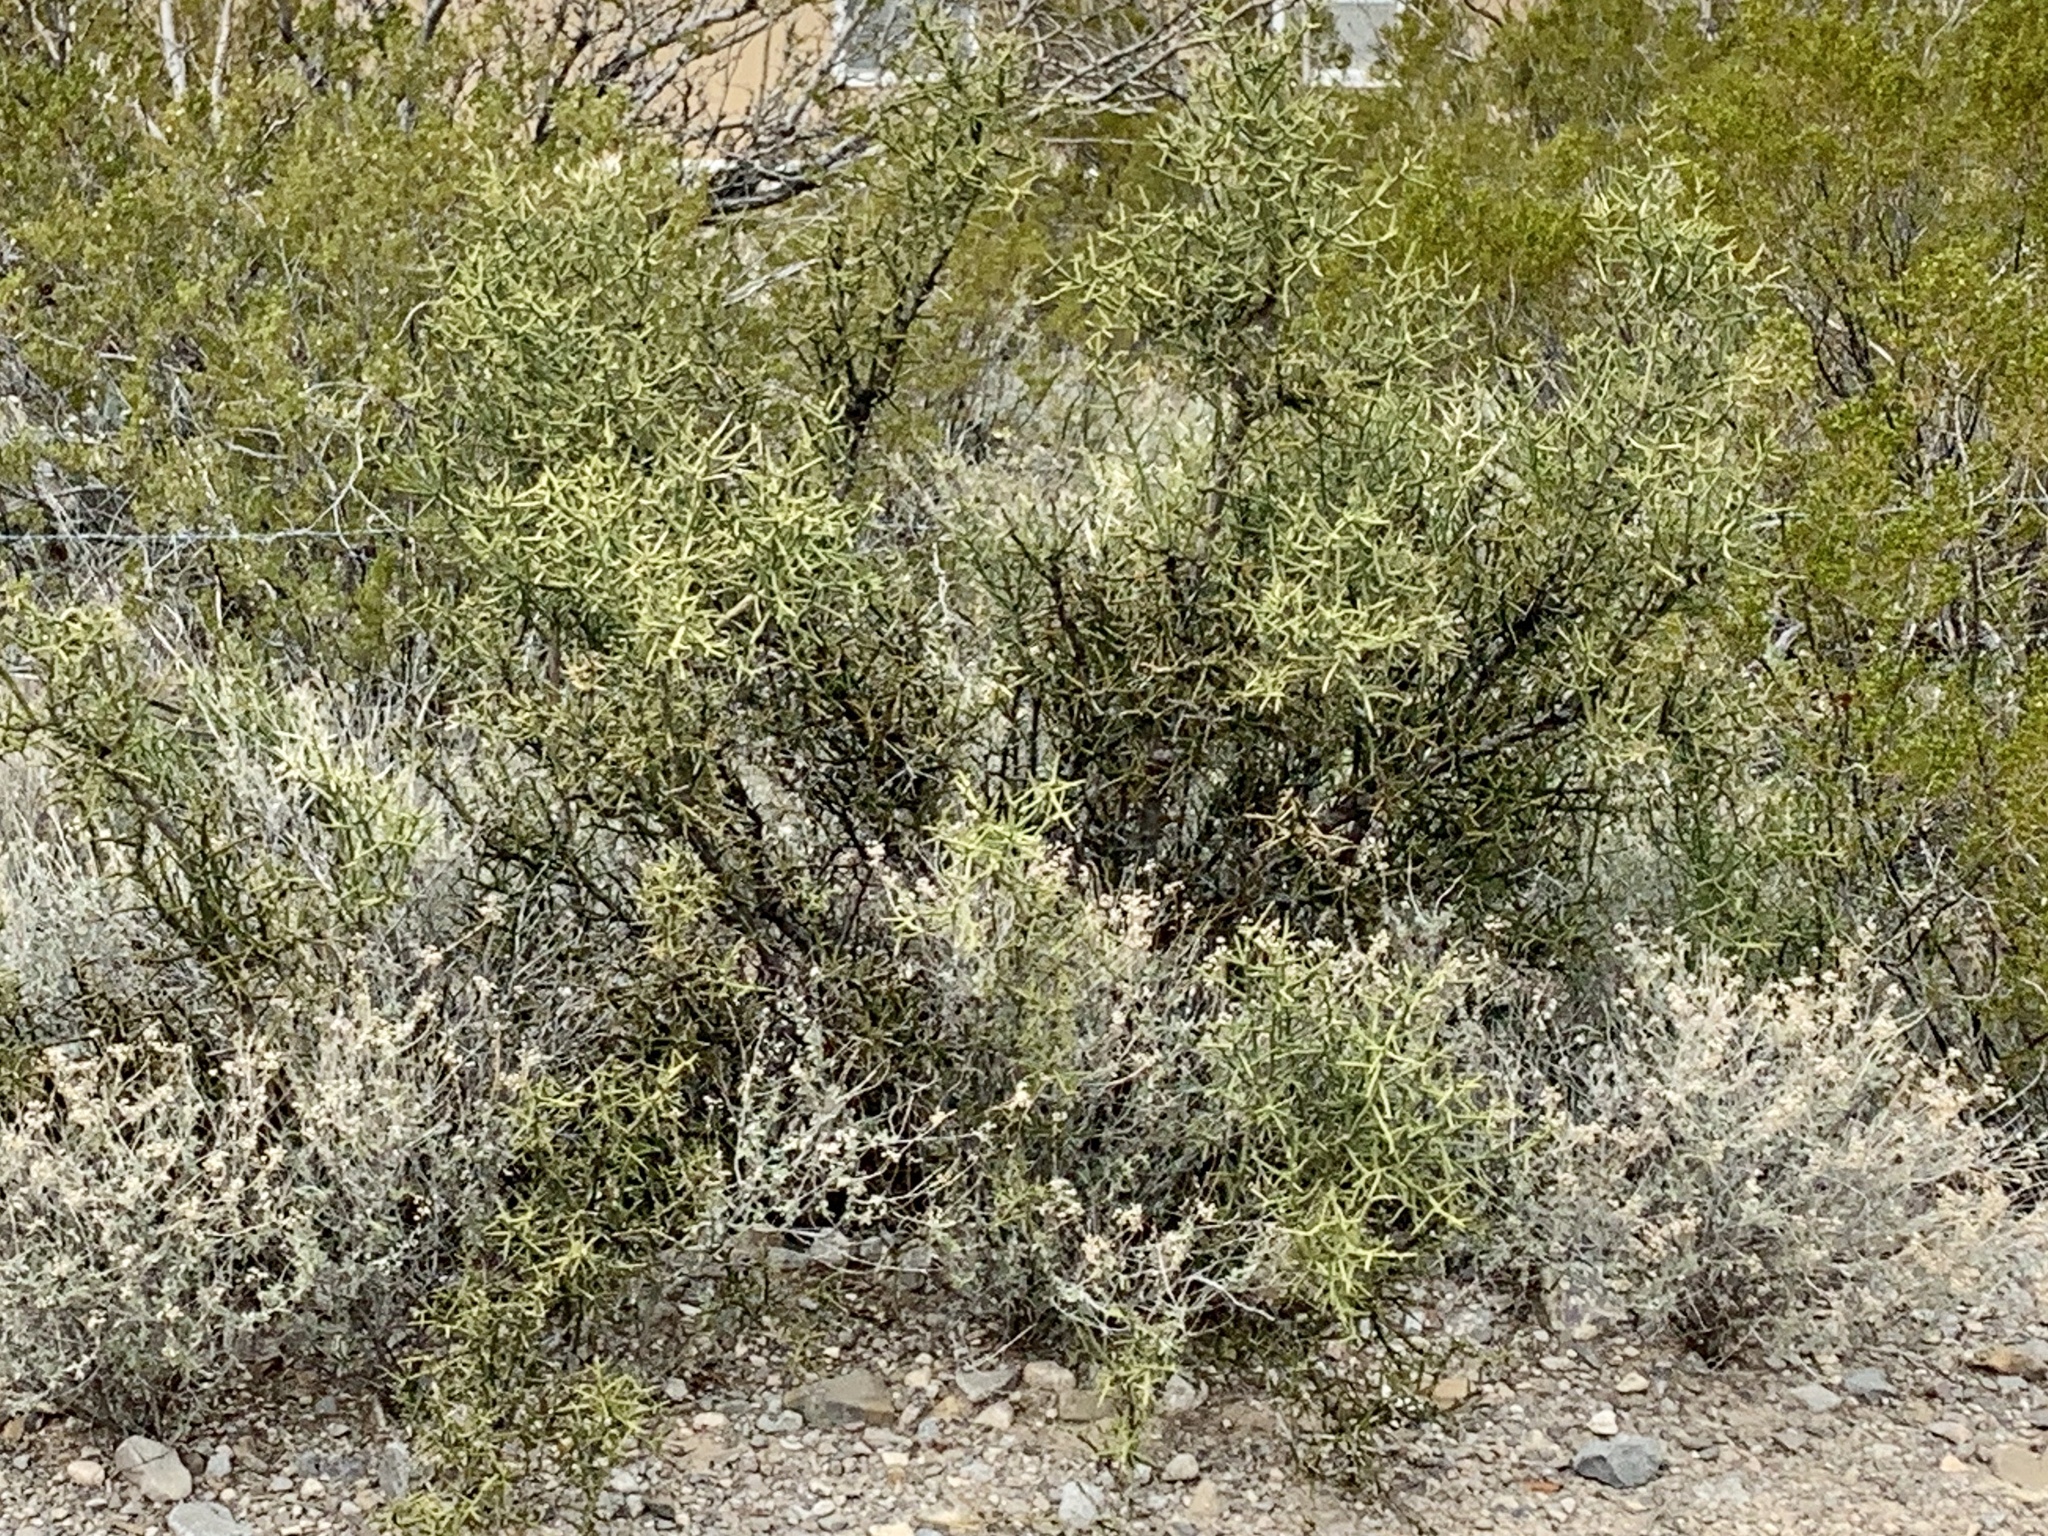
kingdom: Plantae
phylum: Tracheophyta
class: Magnoliopsida
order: Brassicales
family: Koeberliniaceae
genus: Koeberlinia
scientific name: Koeberlinia spinosa
